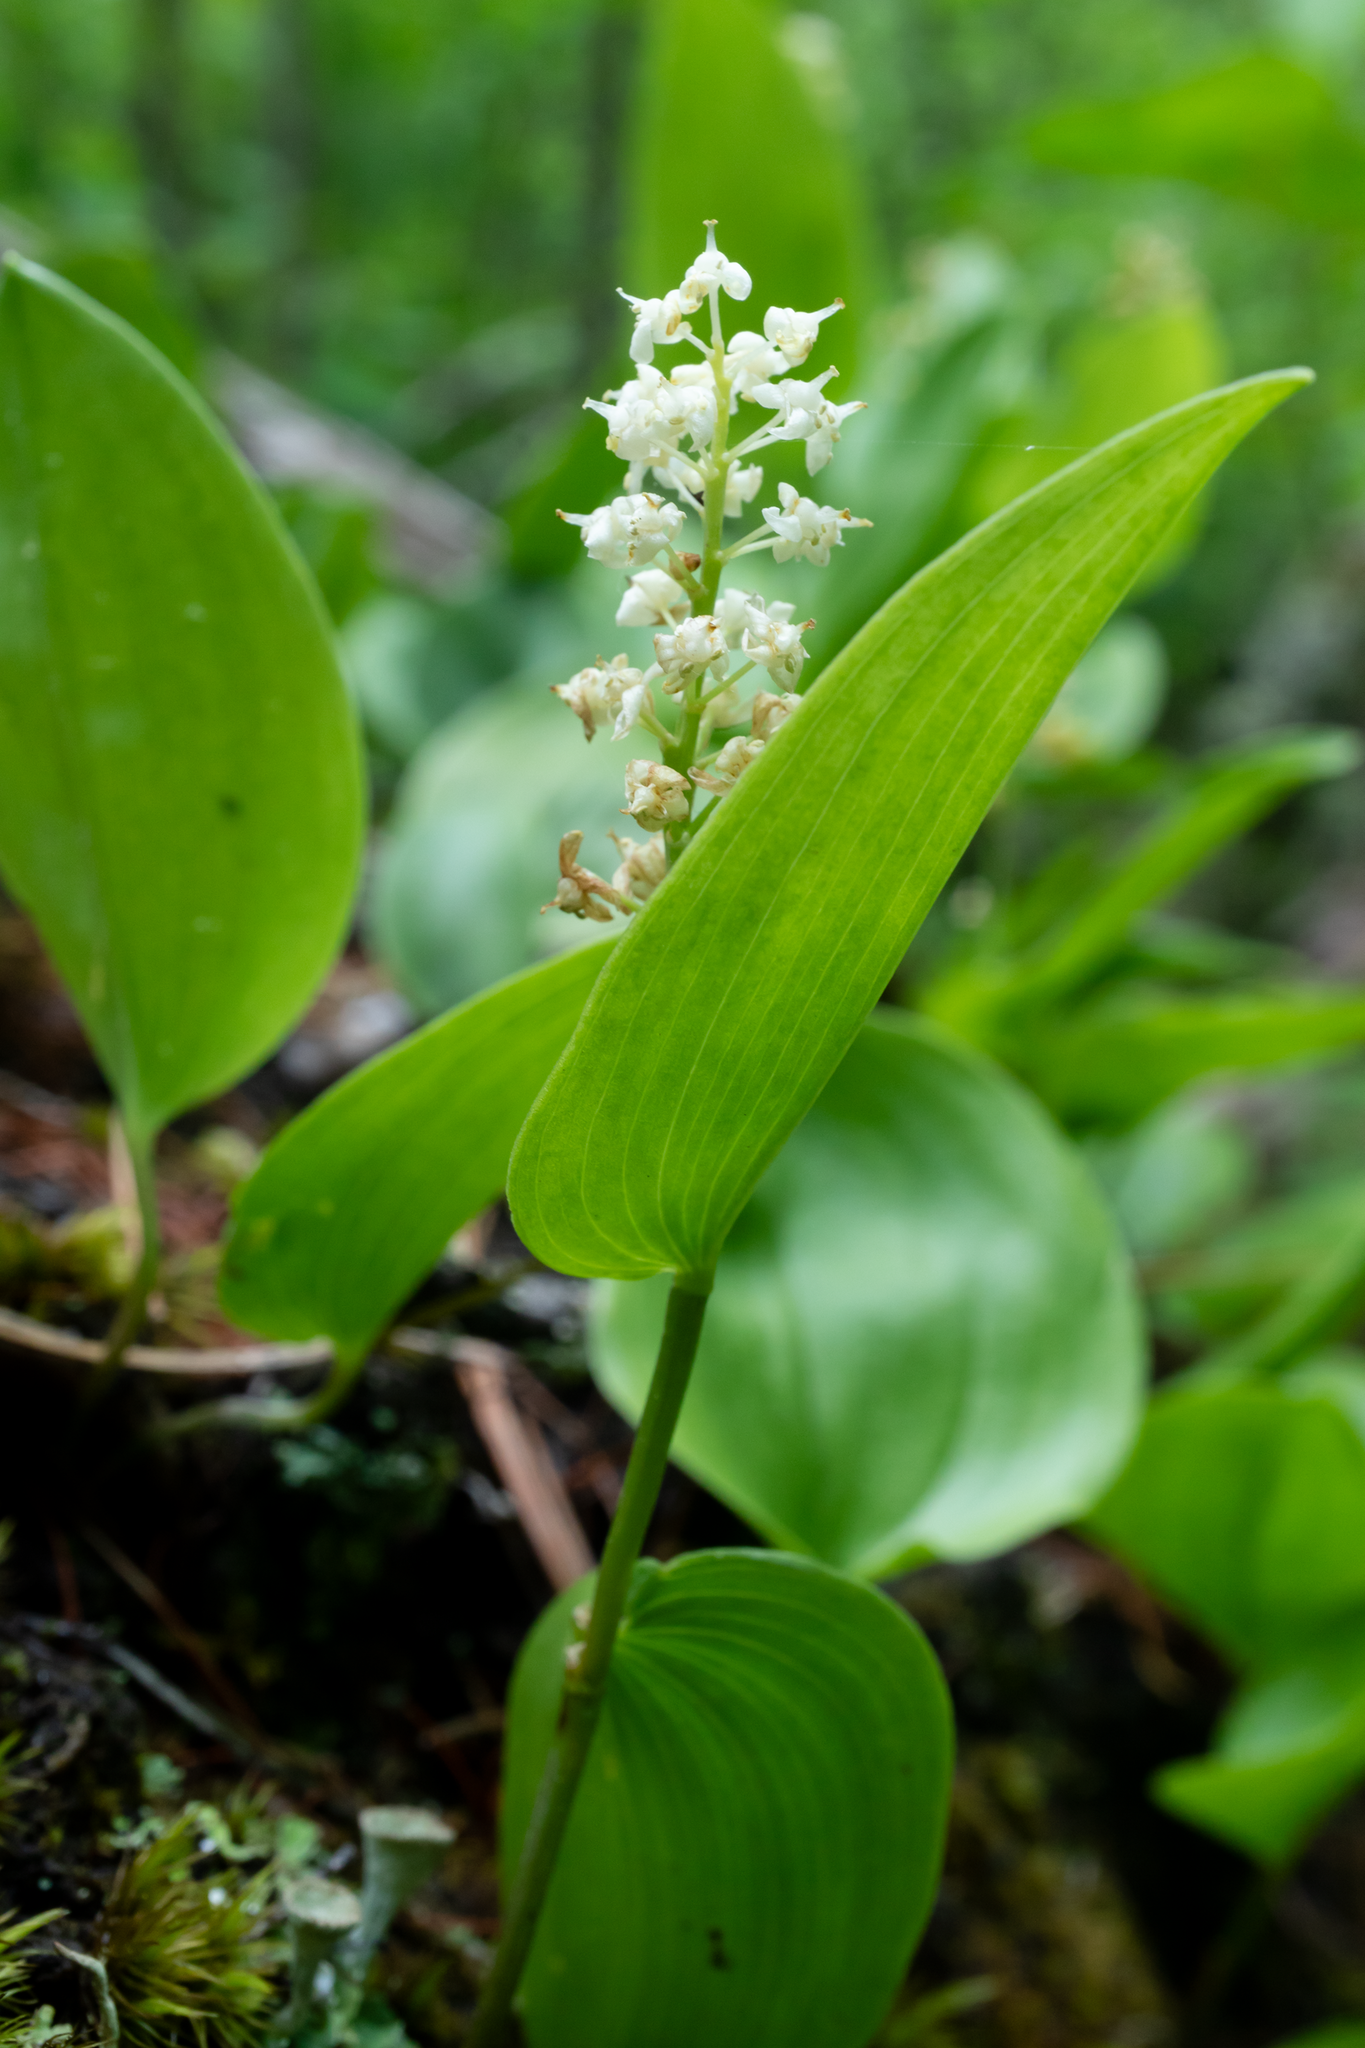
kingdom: Plantae
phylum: Tracheophyta
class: Liliopsida
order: Asparagales
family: Asparagaceae
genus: Maianthemum
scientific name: Maianthemum canadense
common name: False lily-of-the-valley
